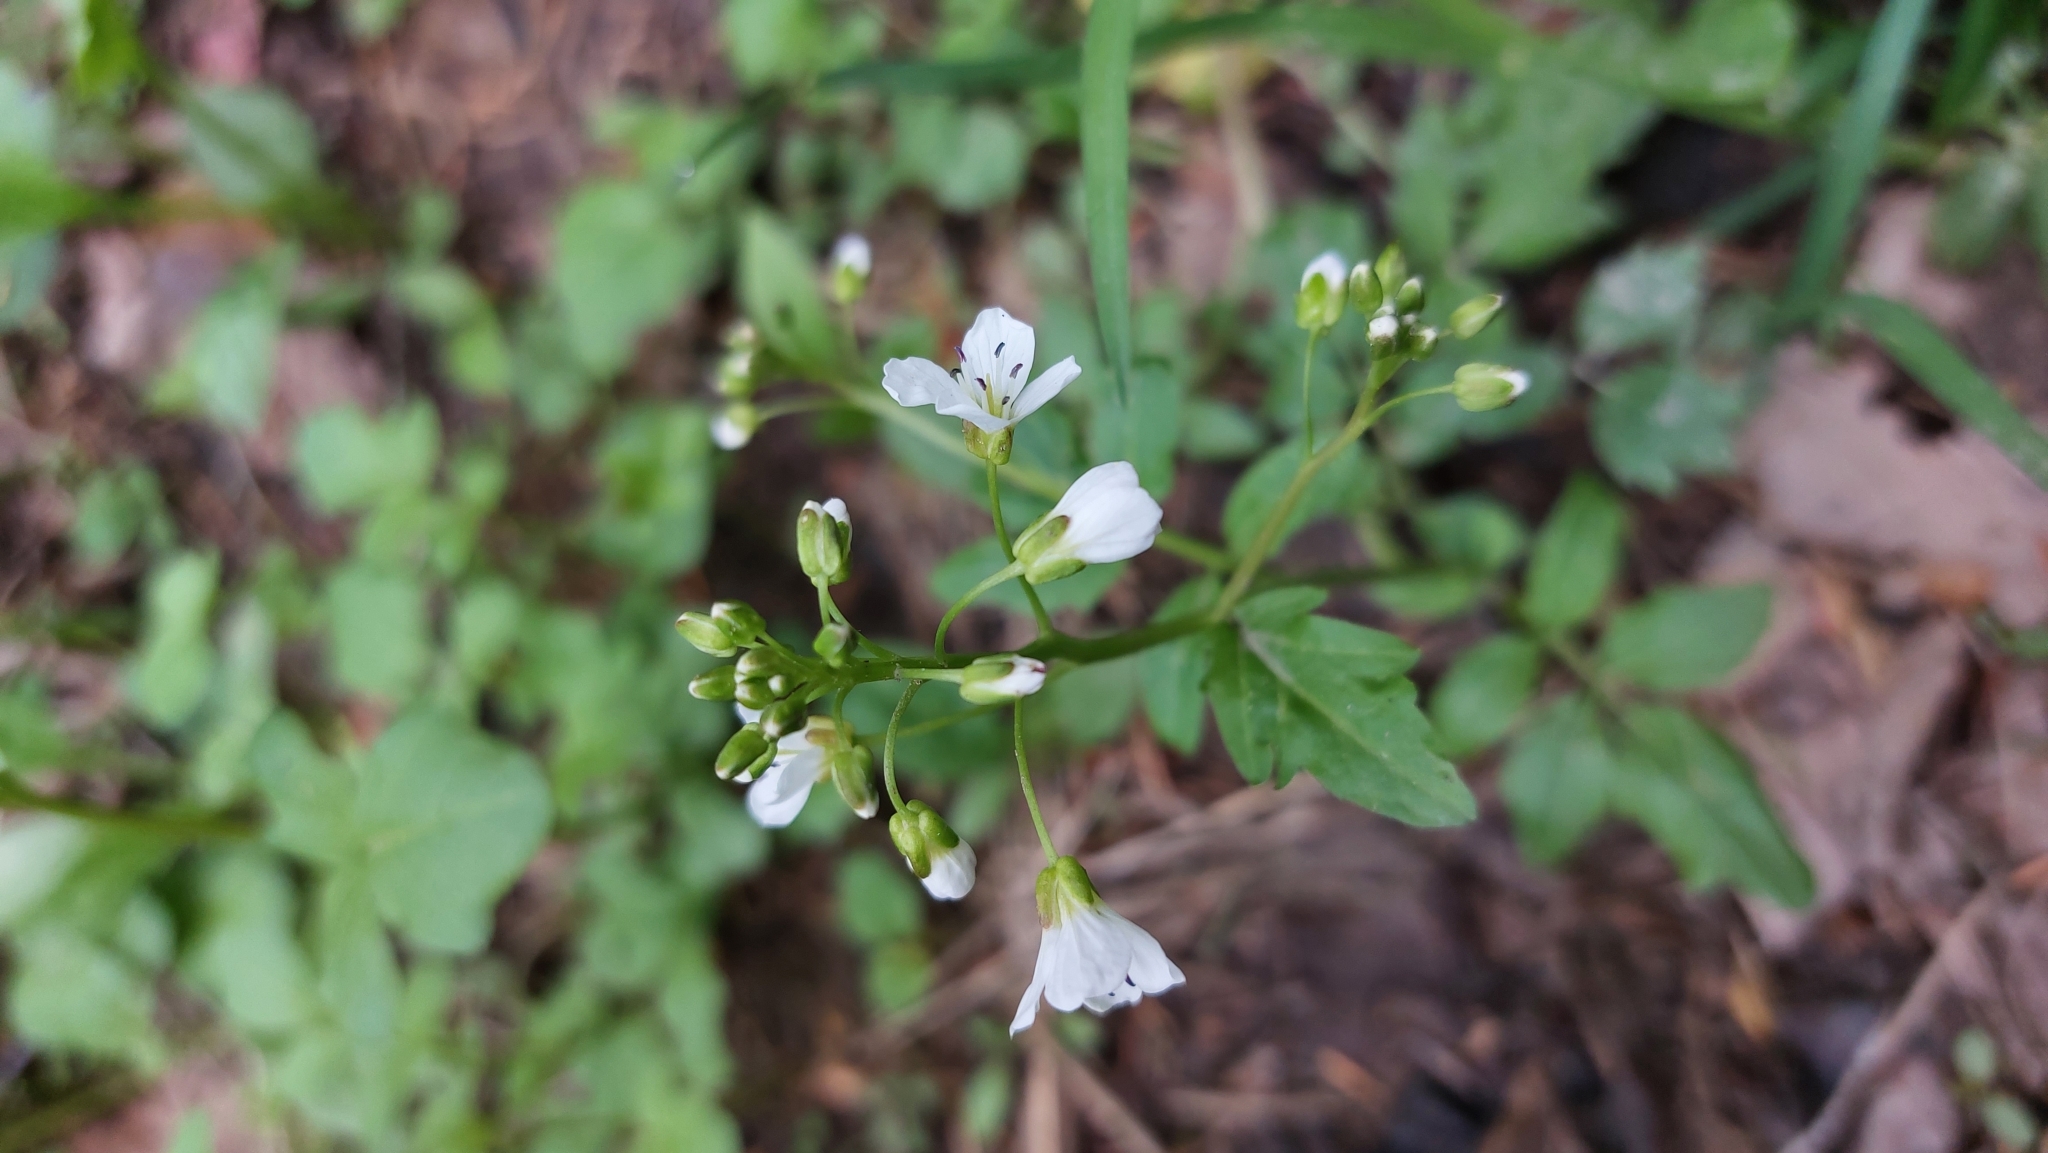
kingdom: Plantae
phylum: Tracheophyta
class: Magnoliopsida
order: Brassicales
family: Brassicaceae
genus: Cardamine
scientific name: Cardamine amara
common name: Large bitter-cress
